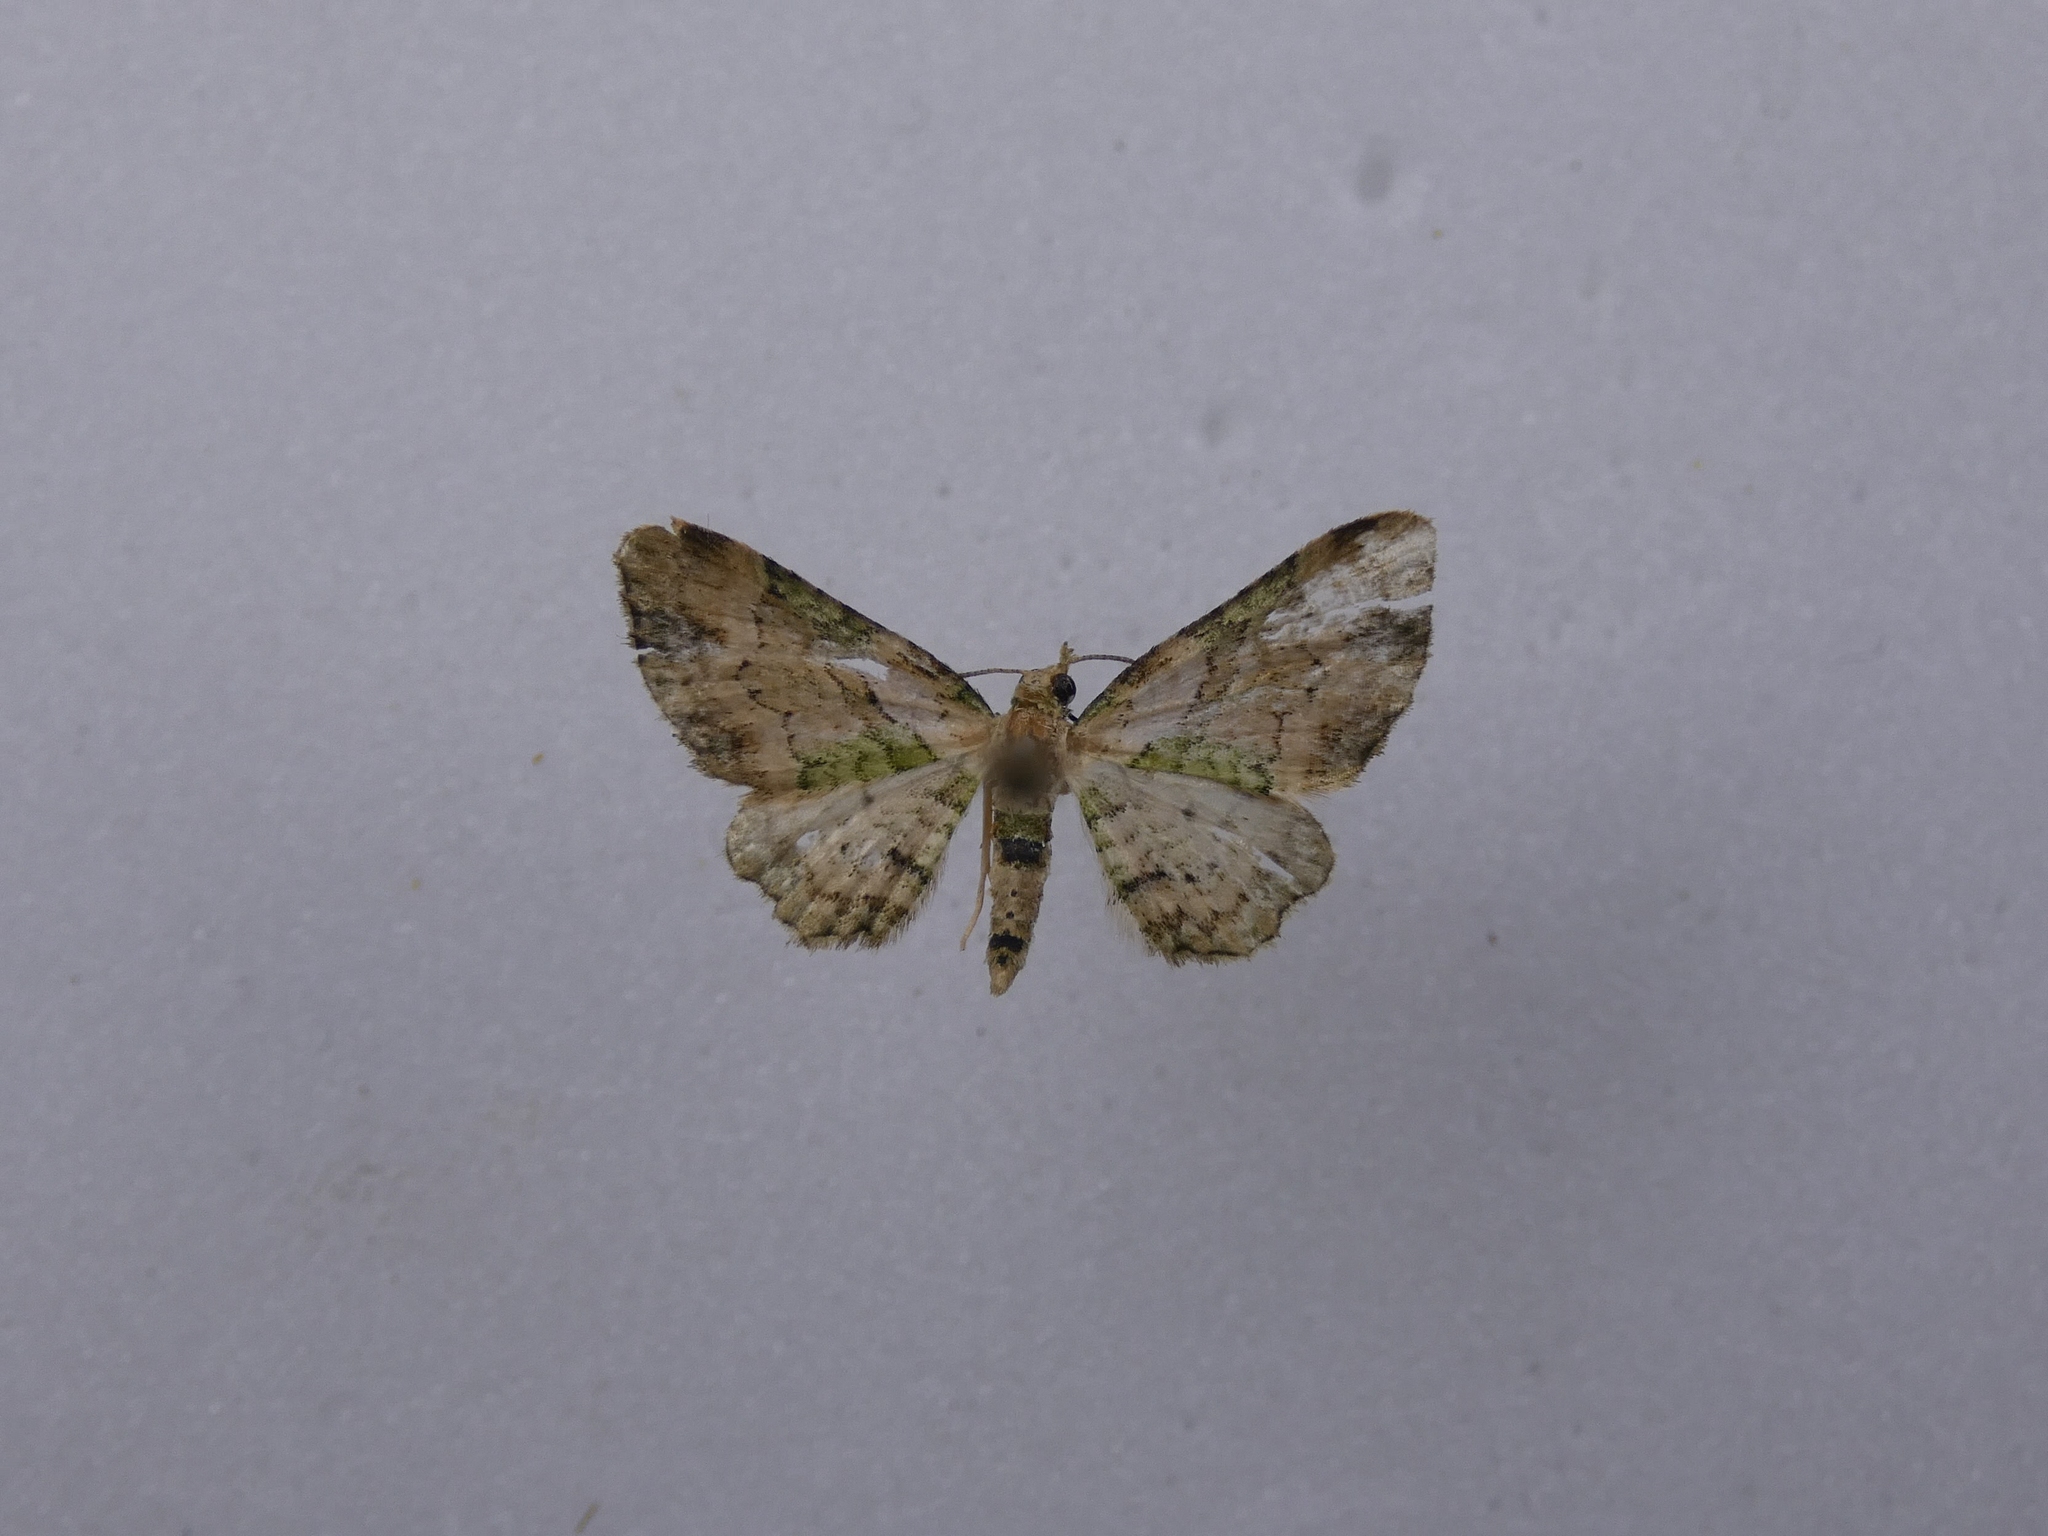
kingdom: Animalia
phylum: Arthropoda
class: Insecta
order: Lepidoptera
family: Geometridae
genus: Chloroclystis
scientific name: Chloroclystis
